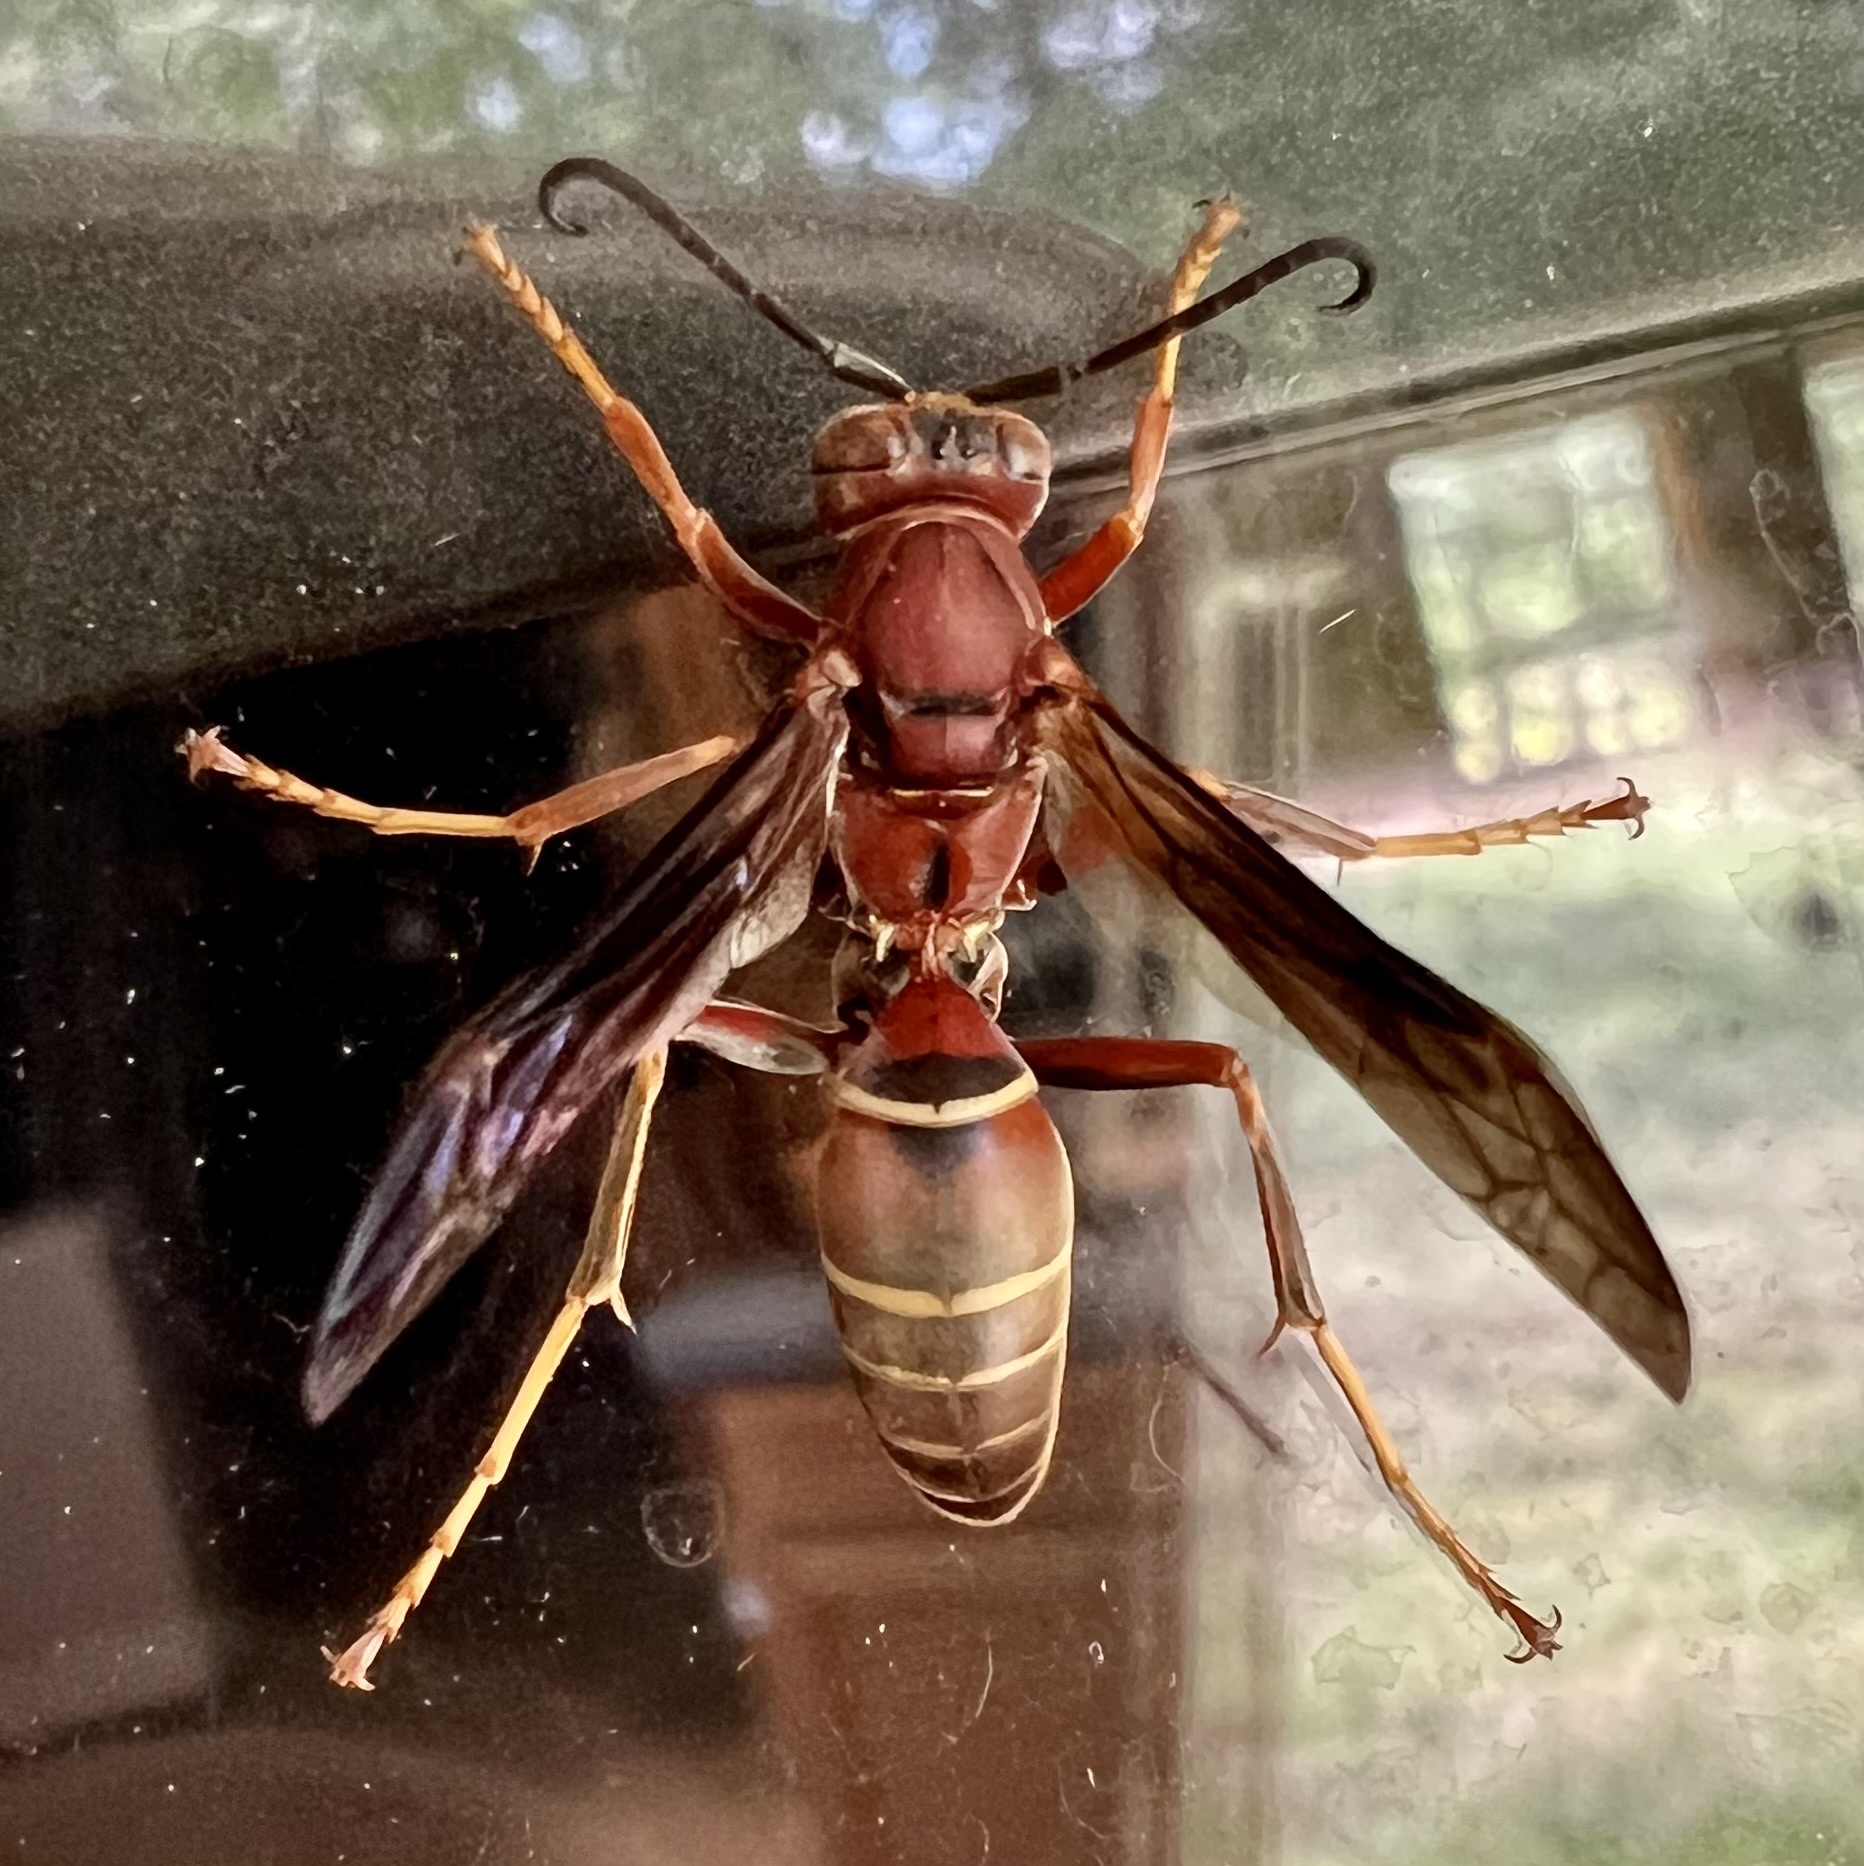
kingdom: Animalia
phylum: Arthropoda
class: Insecta
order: Hymenoptera
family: Eumenidae
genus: Polistes
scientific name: Polistes fuscatus
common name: Dark paper wasp
